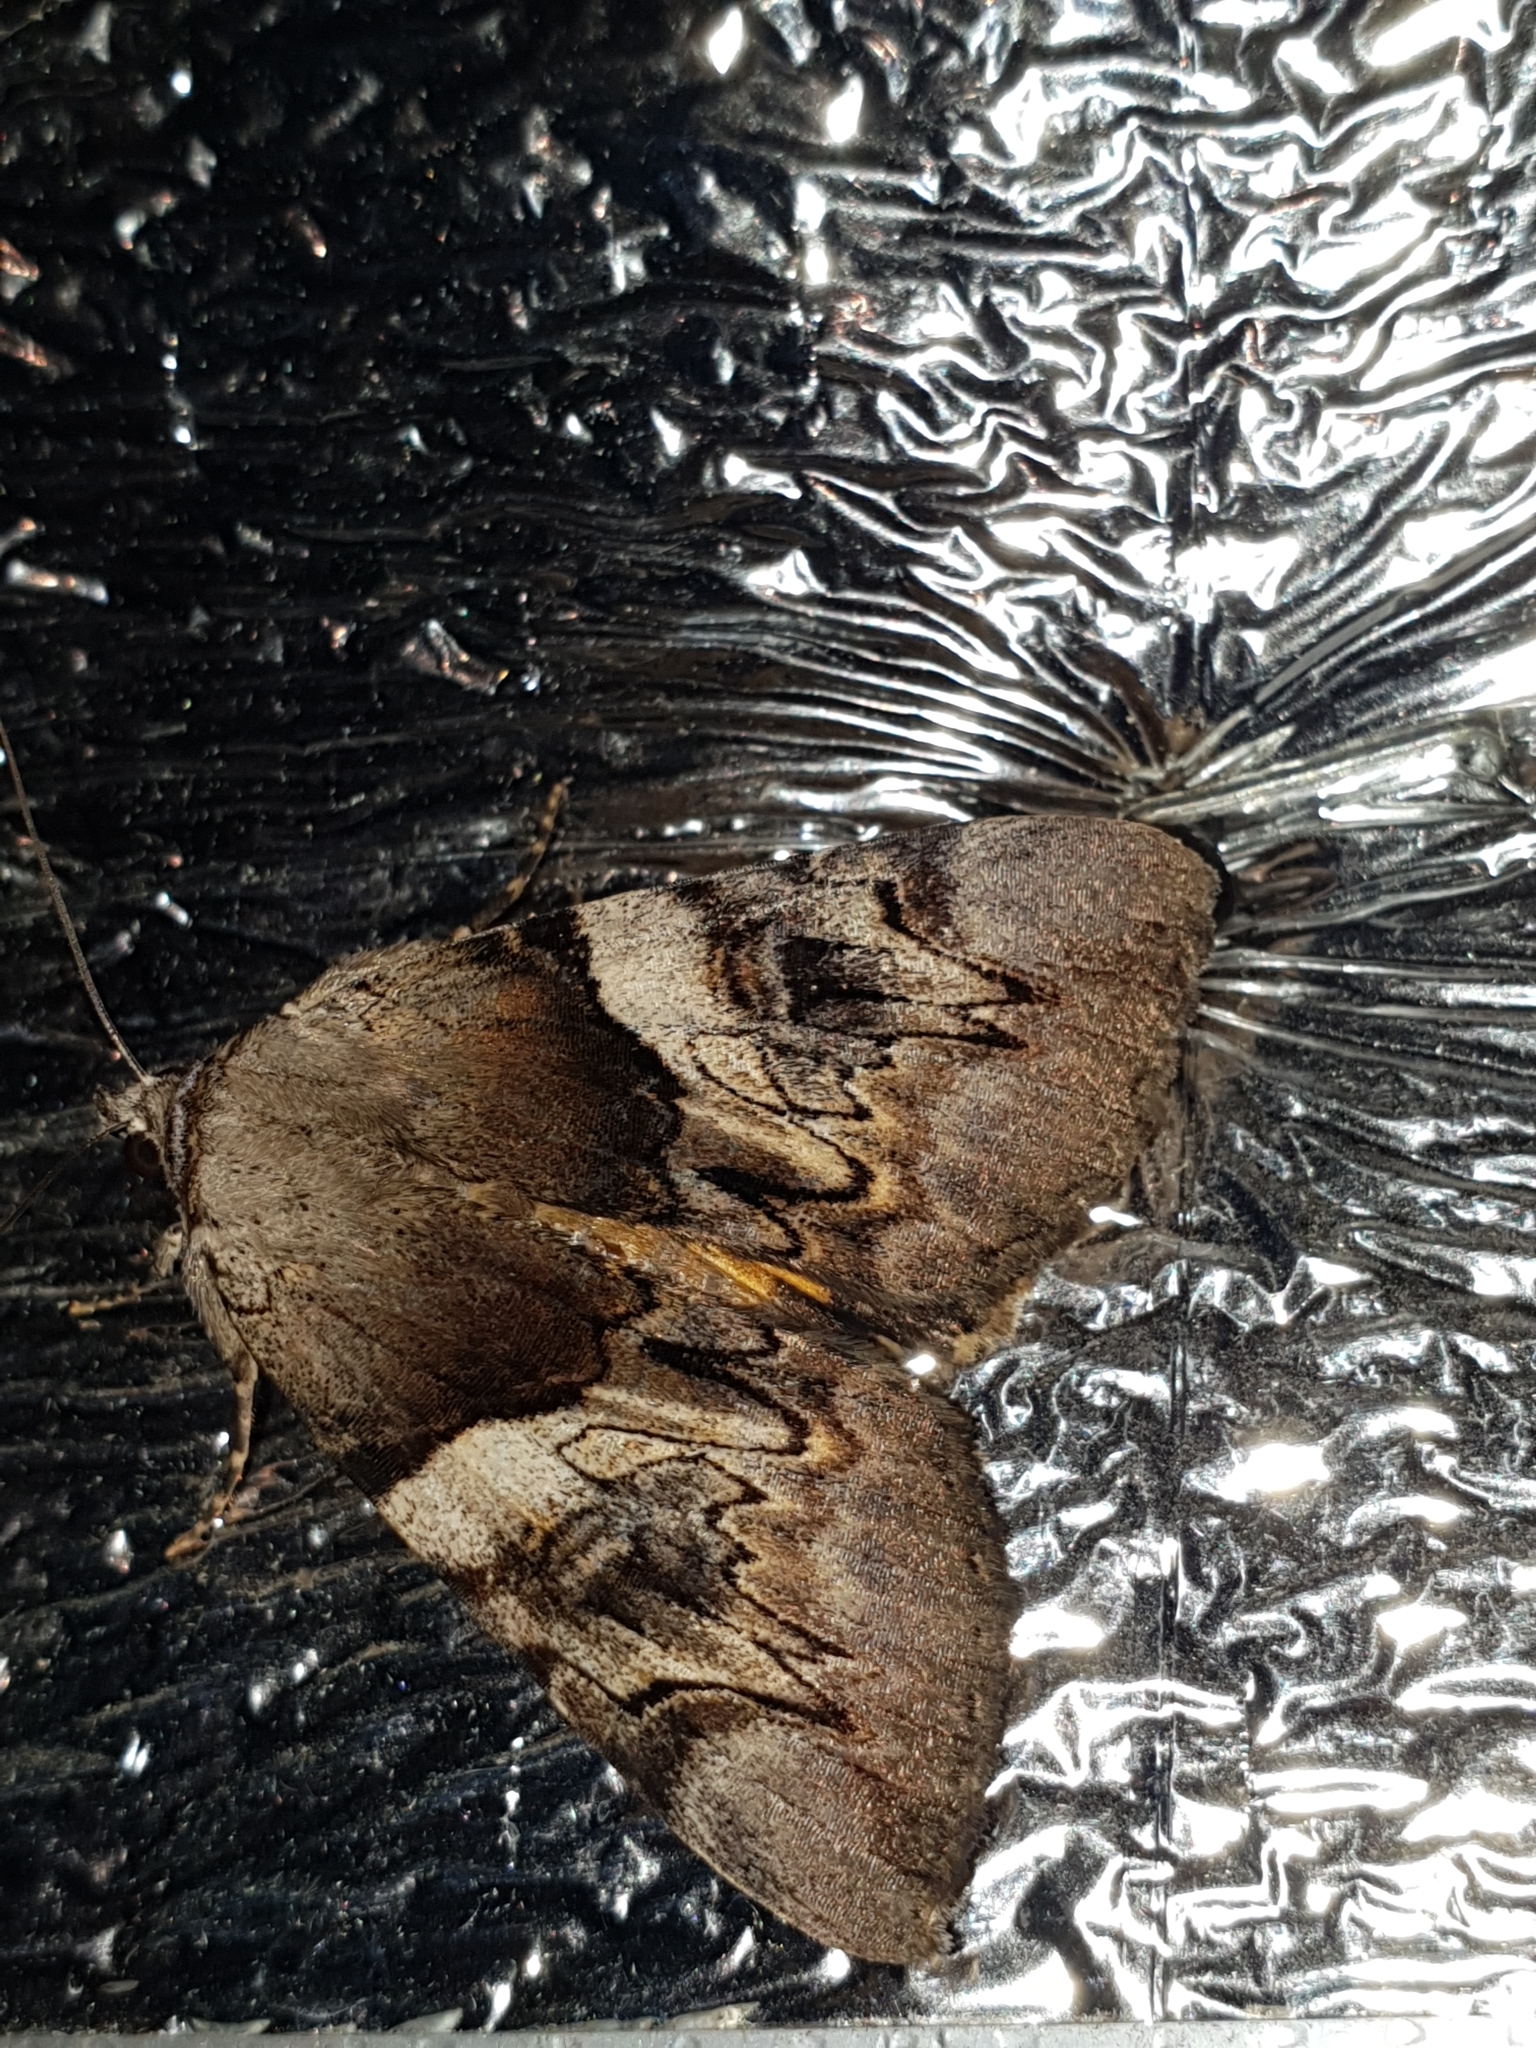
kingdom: Animalia
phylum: Arthropoda
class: Insecta
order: Lepidoptera
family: Erebidae
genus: Catocala
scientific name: Catocala fulminea
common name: Yellow bands underwing
